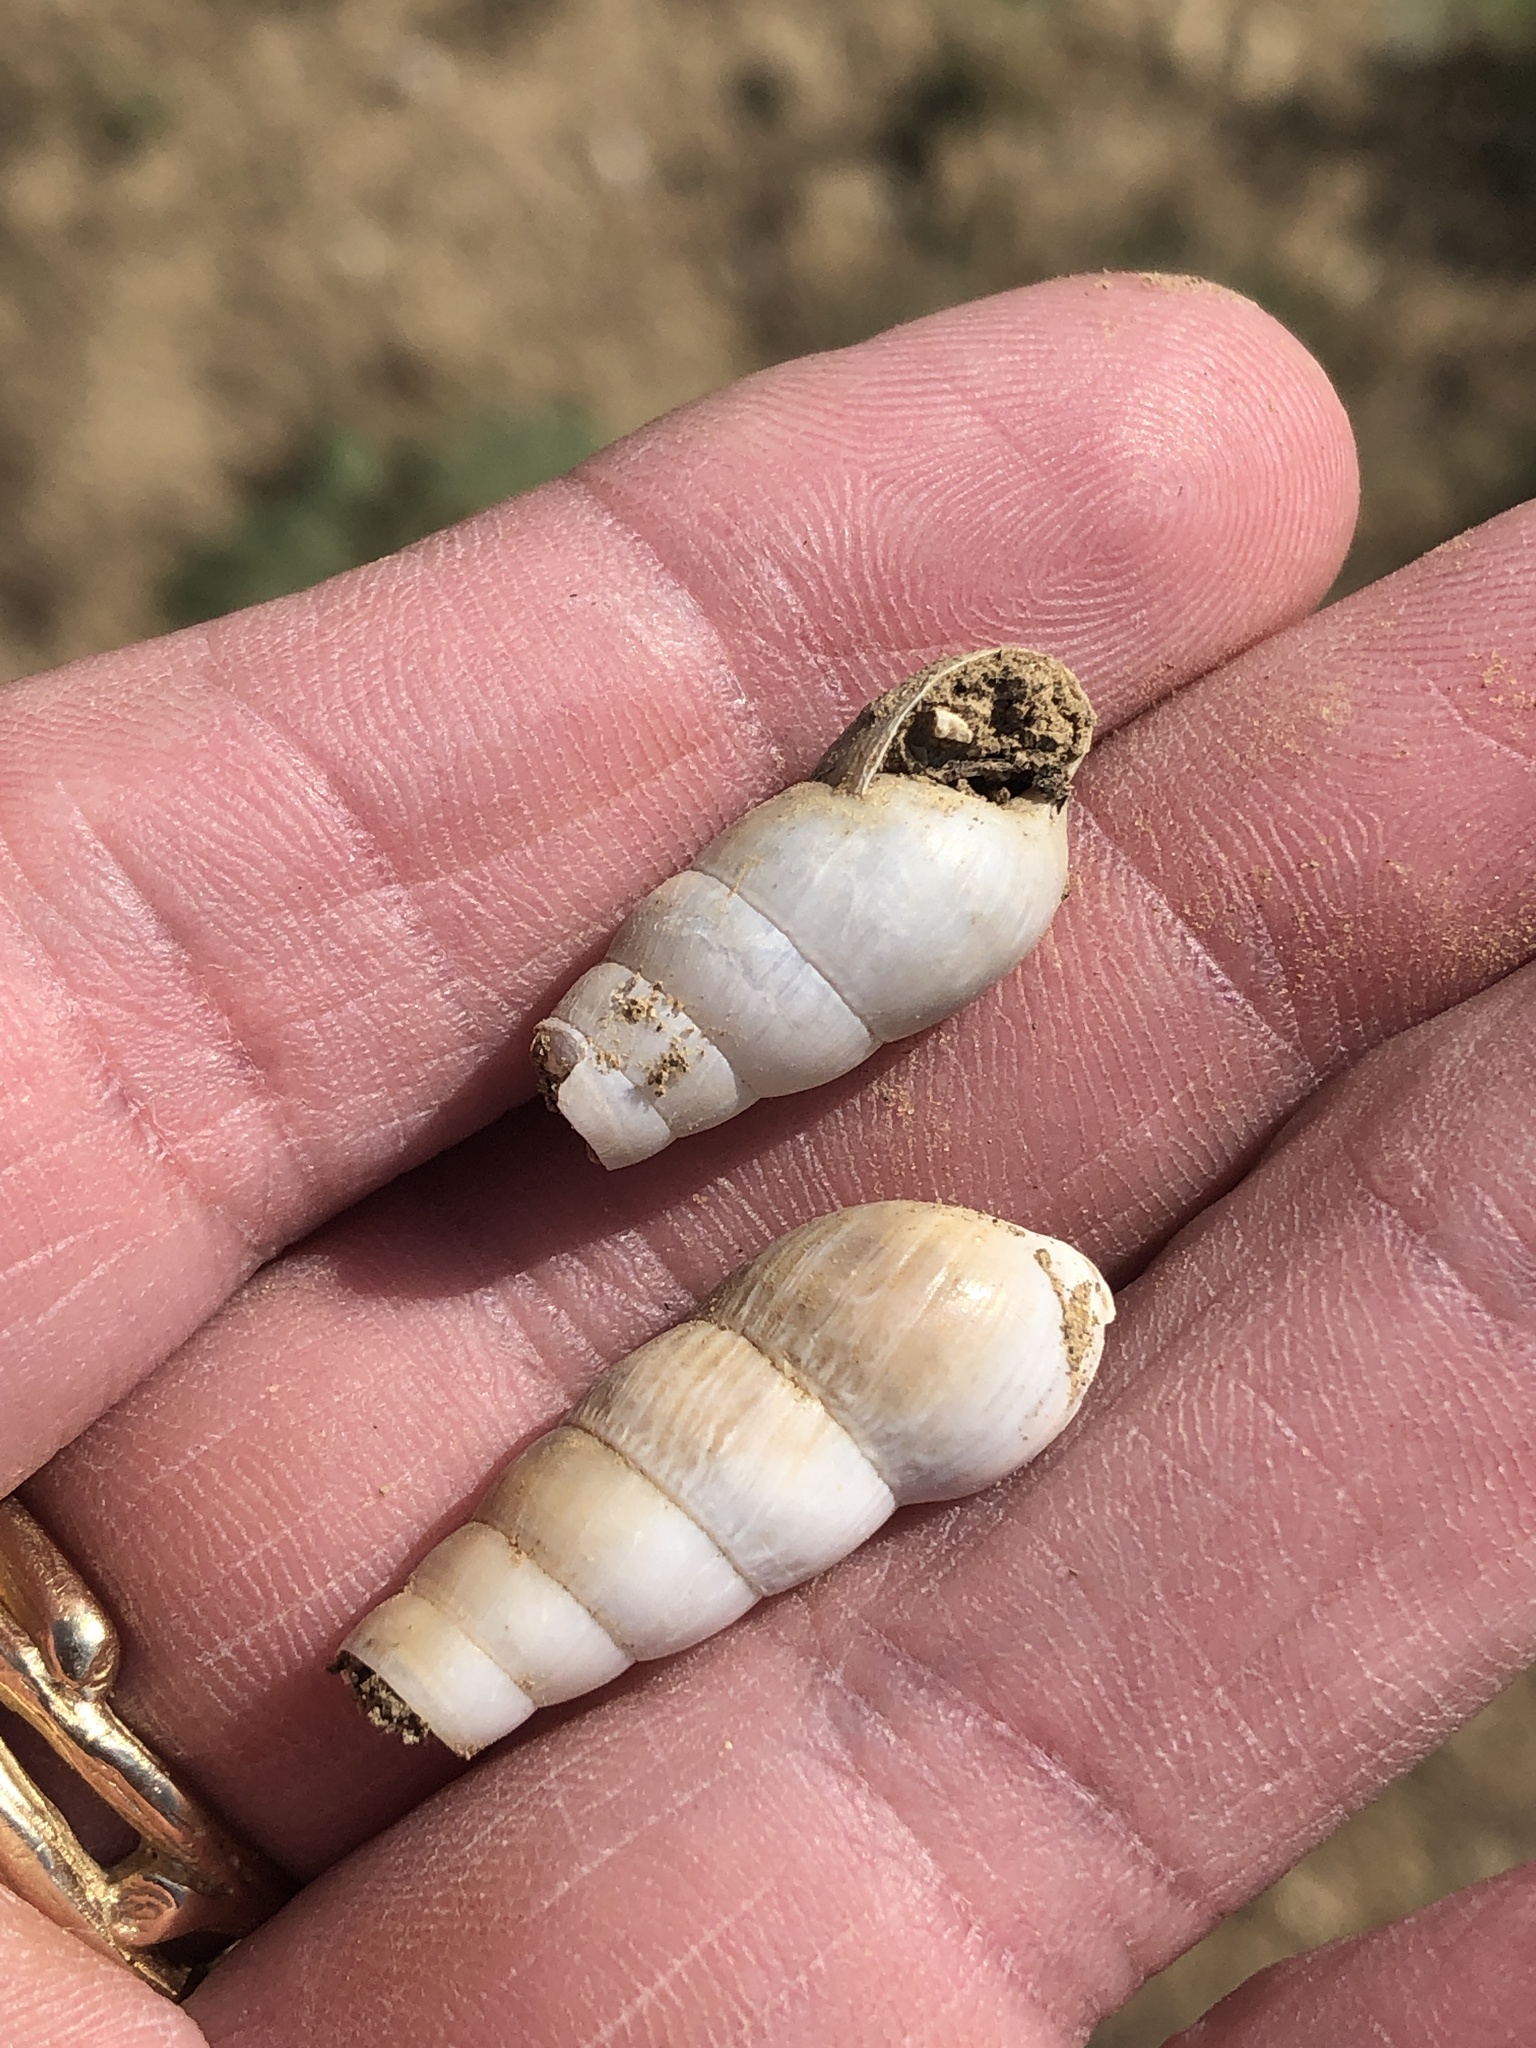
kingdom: Animalia
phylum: Mollusca
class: Gastropoda
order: Stylommatophora
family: Achatinidae
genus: Rumina
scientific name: Rumina decollata
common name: Decollate snail
